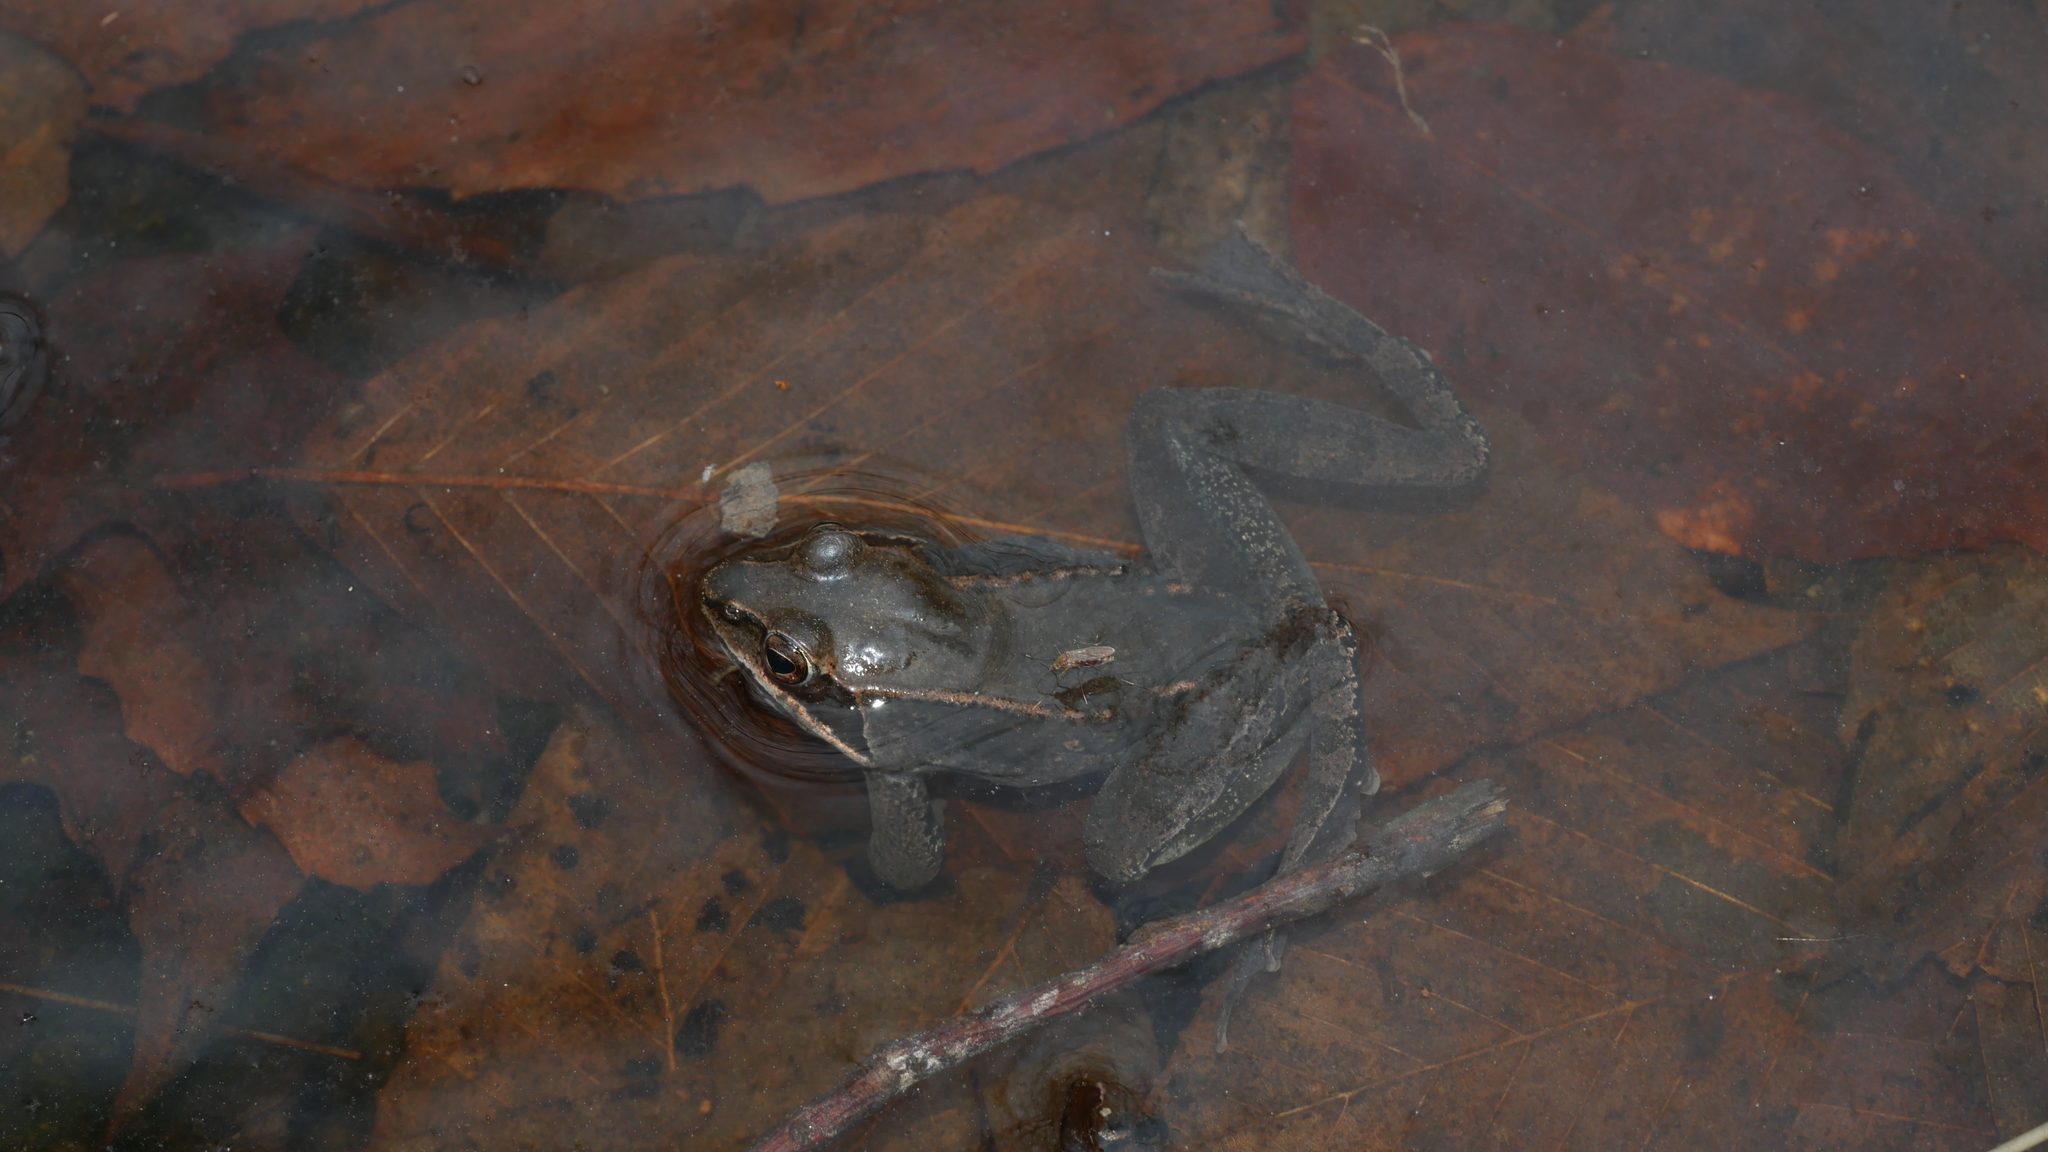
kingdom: Animalia
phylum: Chordata
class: Amphibia
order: Anura
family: Ranidae
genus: Lithobates
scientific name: Lithobates sylvaticus
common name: Wood frog
